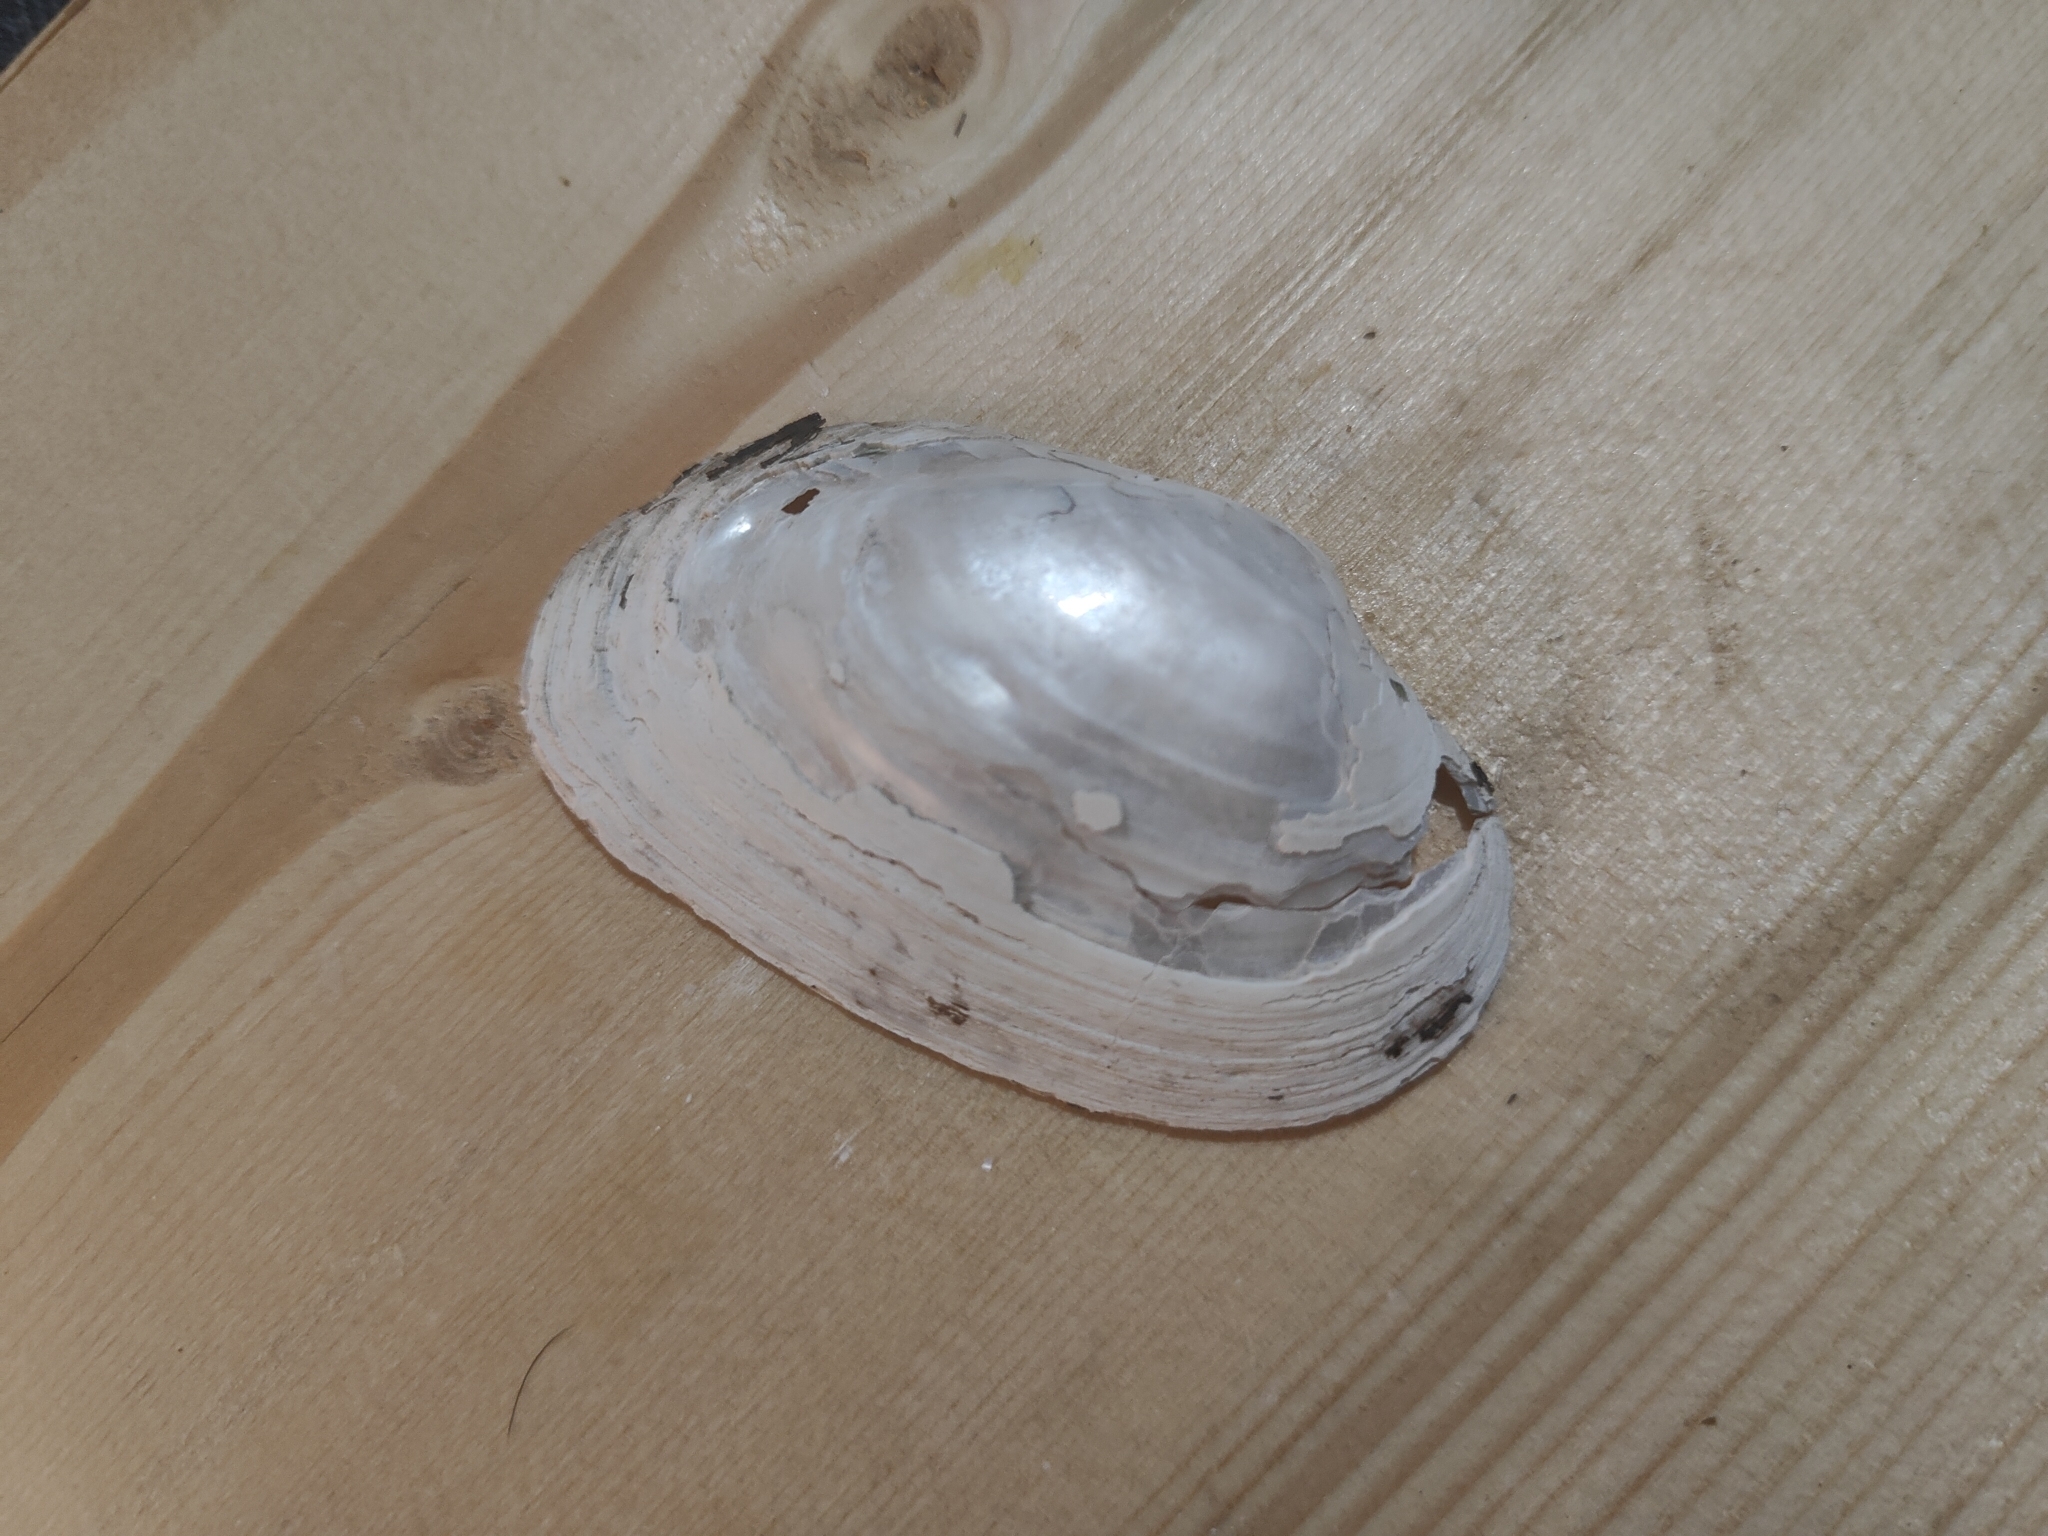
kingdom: Animalia
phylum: Mollusca
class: Bivalvia
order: Unionida
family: Unionidae
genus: Strophitus
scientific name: Strophitus undulatus
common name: Creeper
